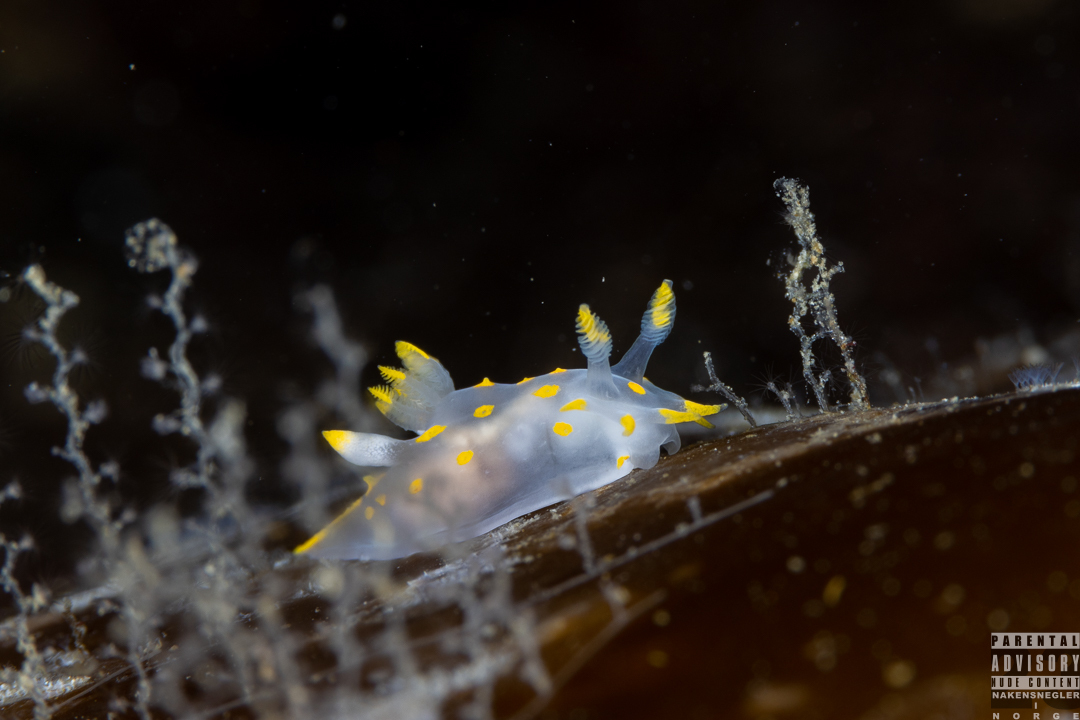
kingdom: Animalia
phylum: Mollusca
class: Gastropoda
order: Nudibranchia
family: Polyceridae
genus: Polycera
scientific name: Polycera quadrilineata
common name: Four-striped polycera
